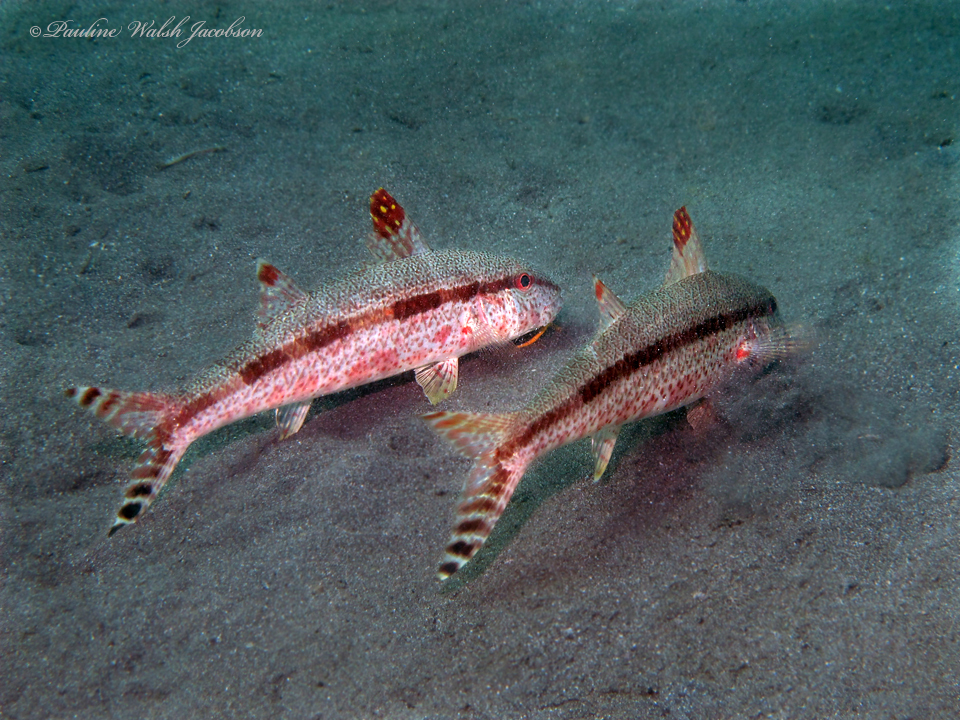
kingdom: Animalia
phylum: Chordata
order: Perciformes
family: Mullidae
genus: Upeneus
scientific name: Upeneus tragula
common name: Freckled goatfish
